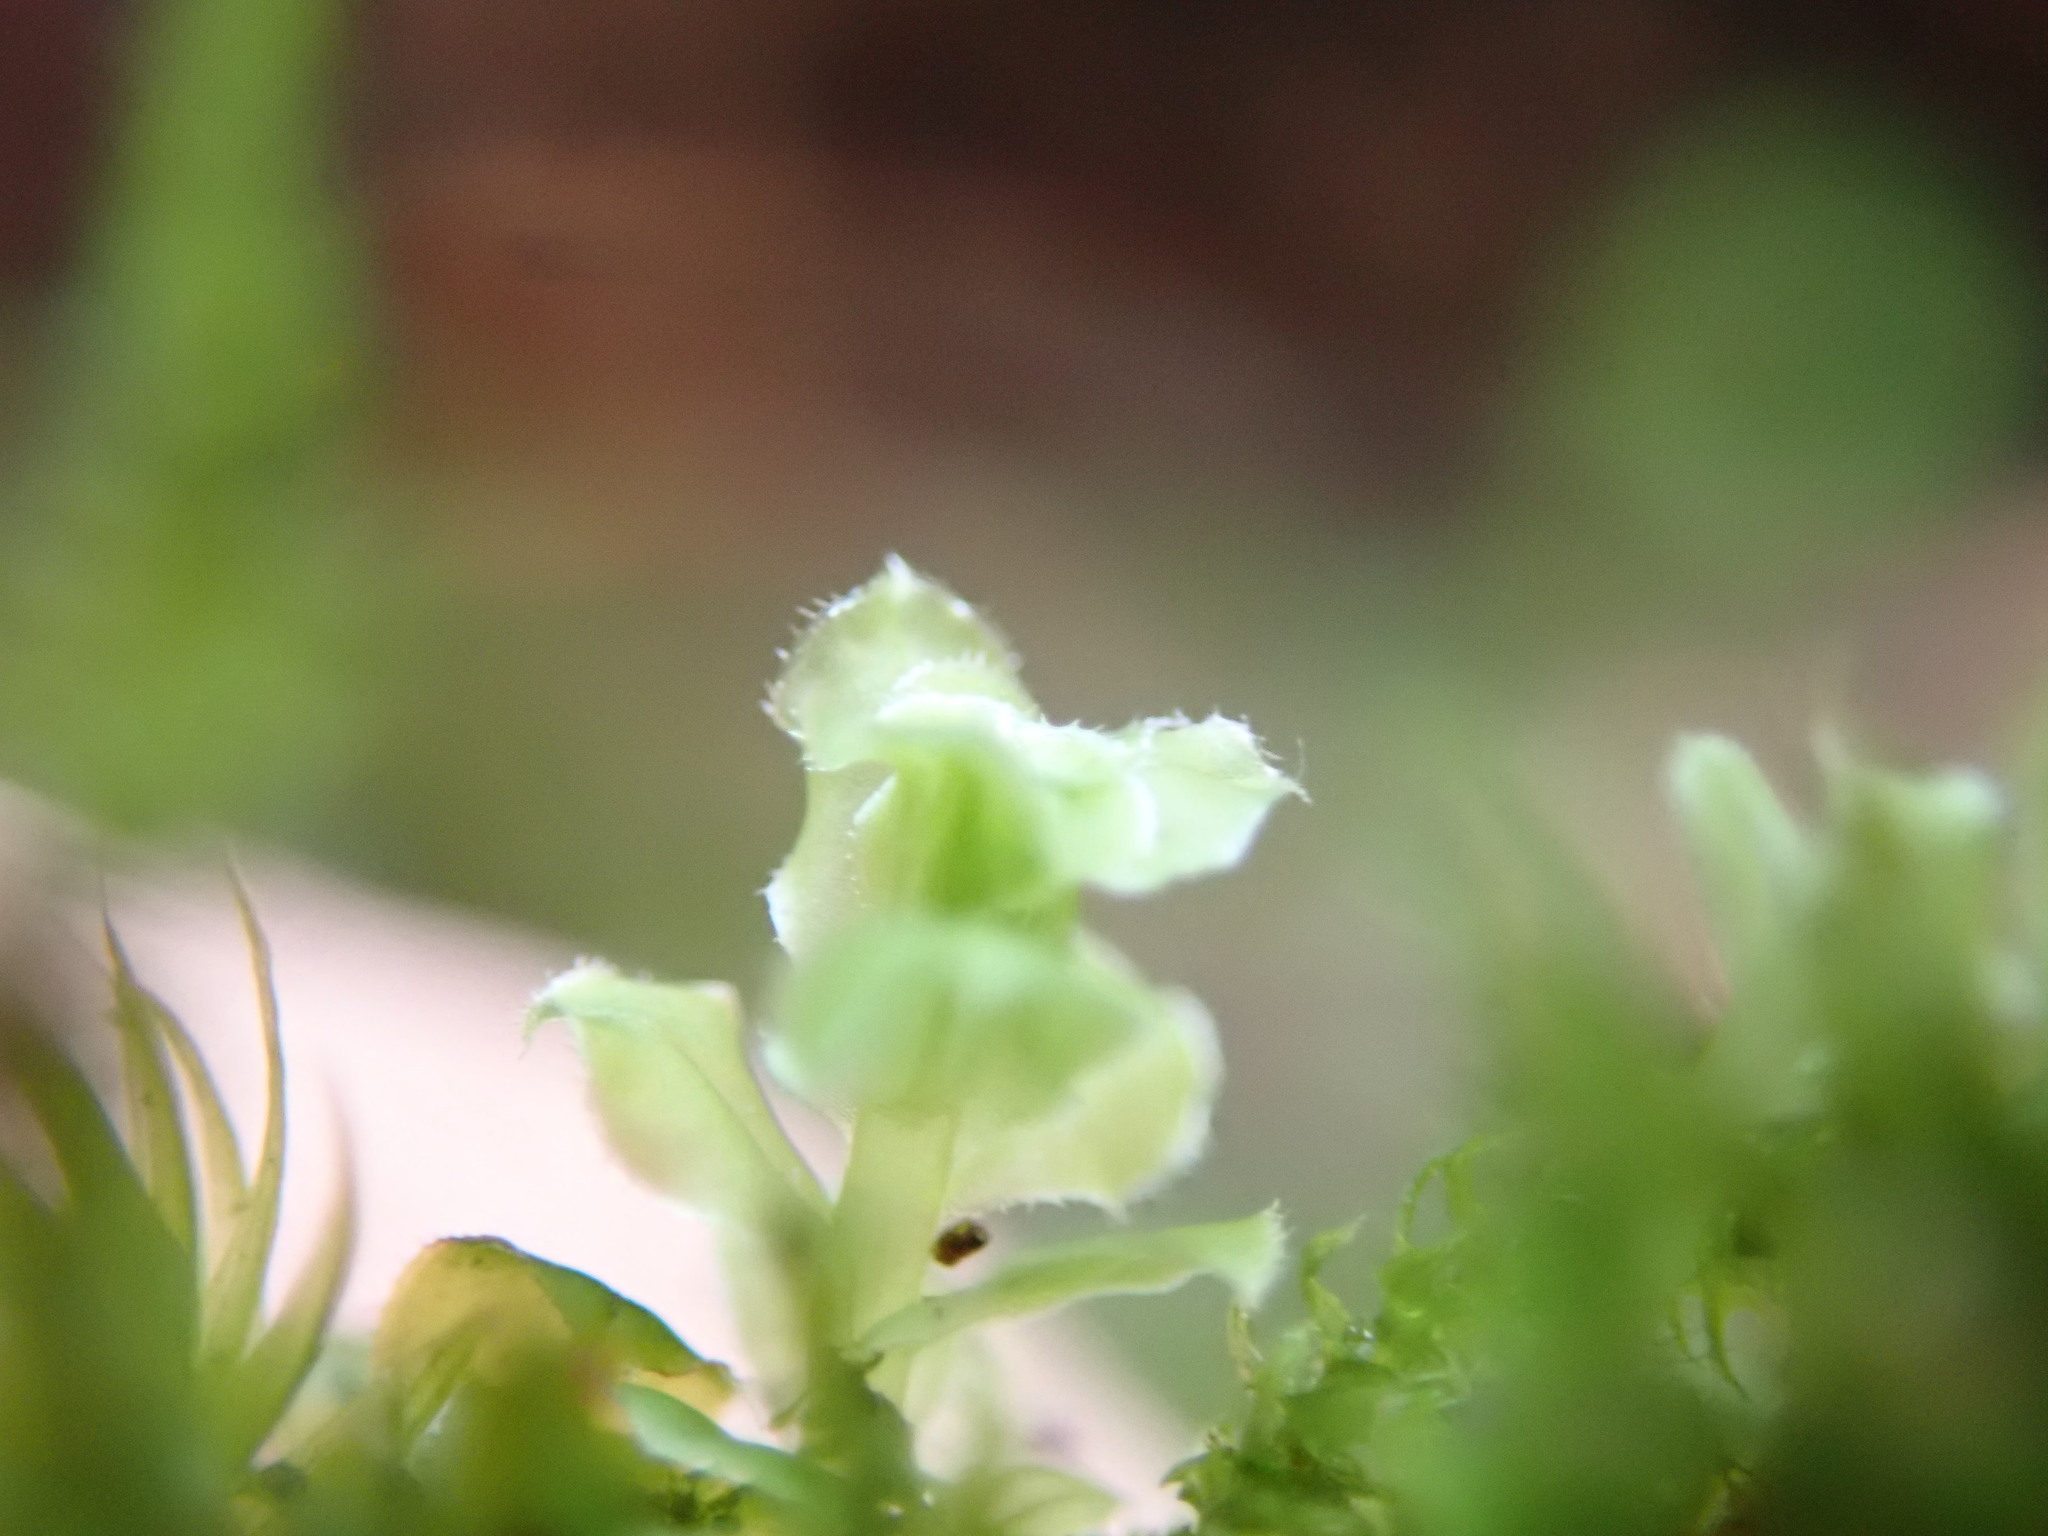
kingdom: Plantae
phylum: Bryophyta
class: Bryopsida
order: Bryales
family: Mniaceae
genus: Plagiomnium
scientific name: Plagiomnium venustum
